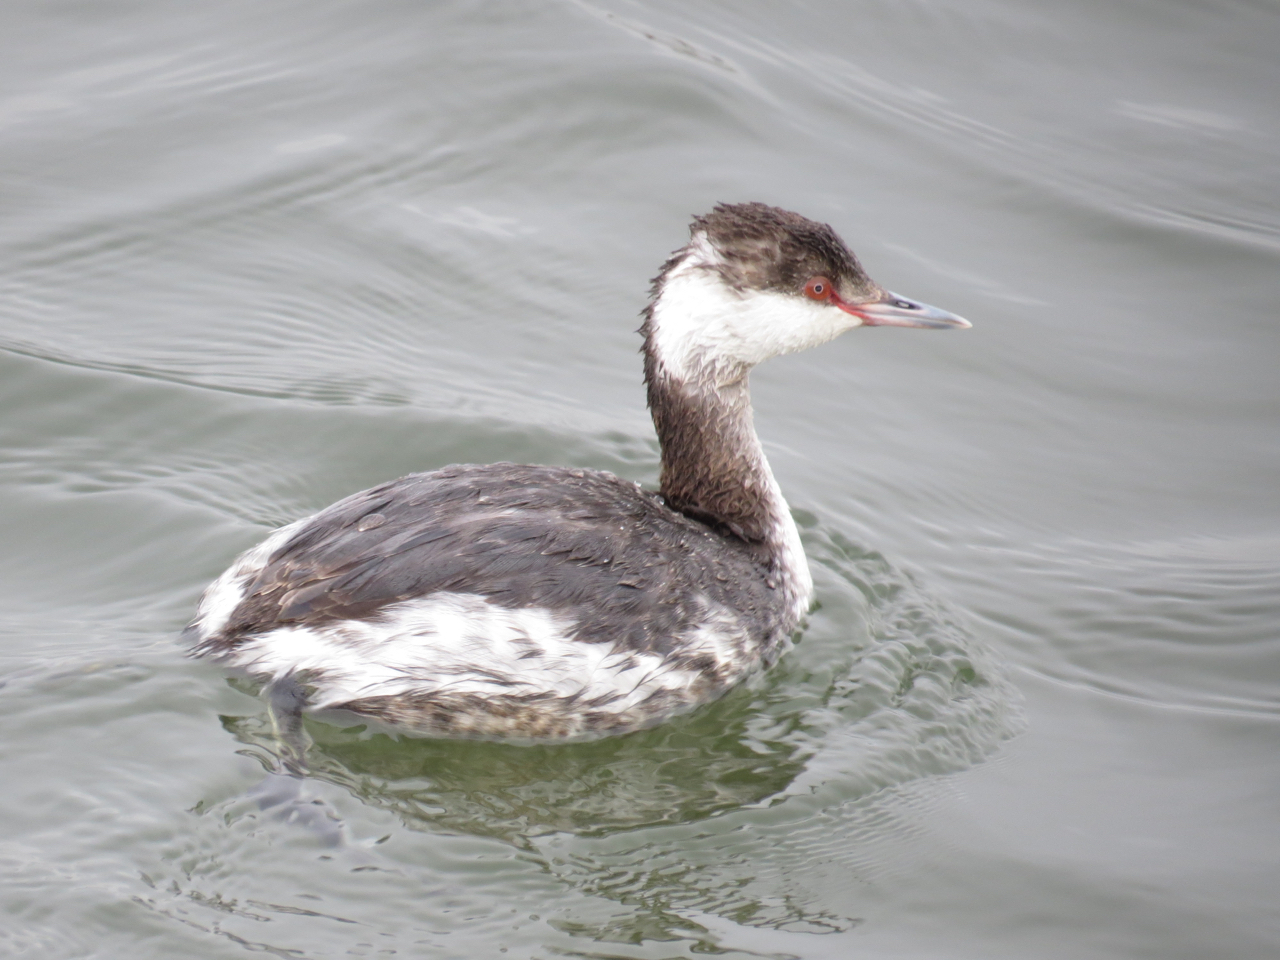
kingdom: Animalia
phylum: Chordata
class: Aves
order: Podicipediformes
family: Podicipedidae
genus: Podiceps
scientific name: Podiceps auritus
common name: Horned grebe
